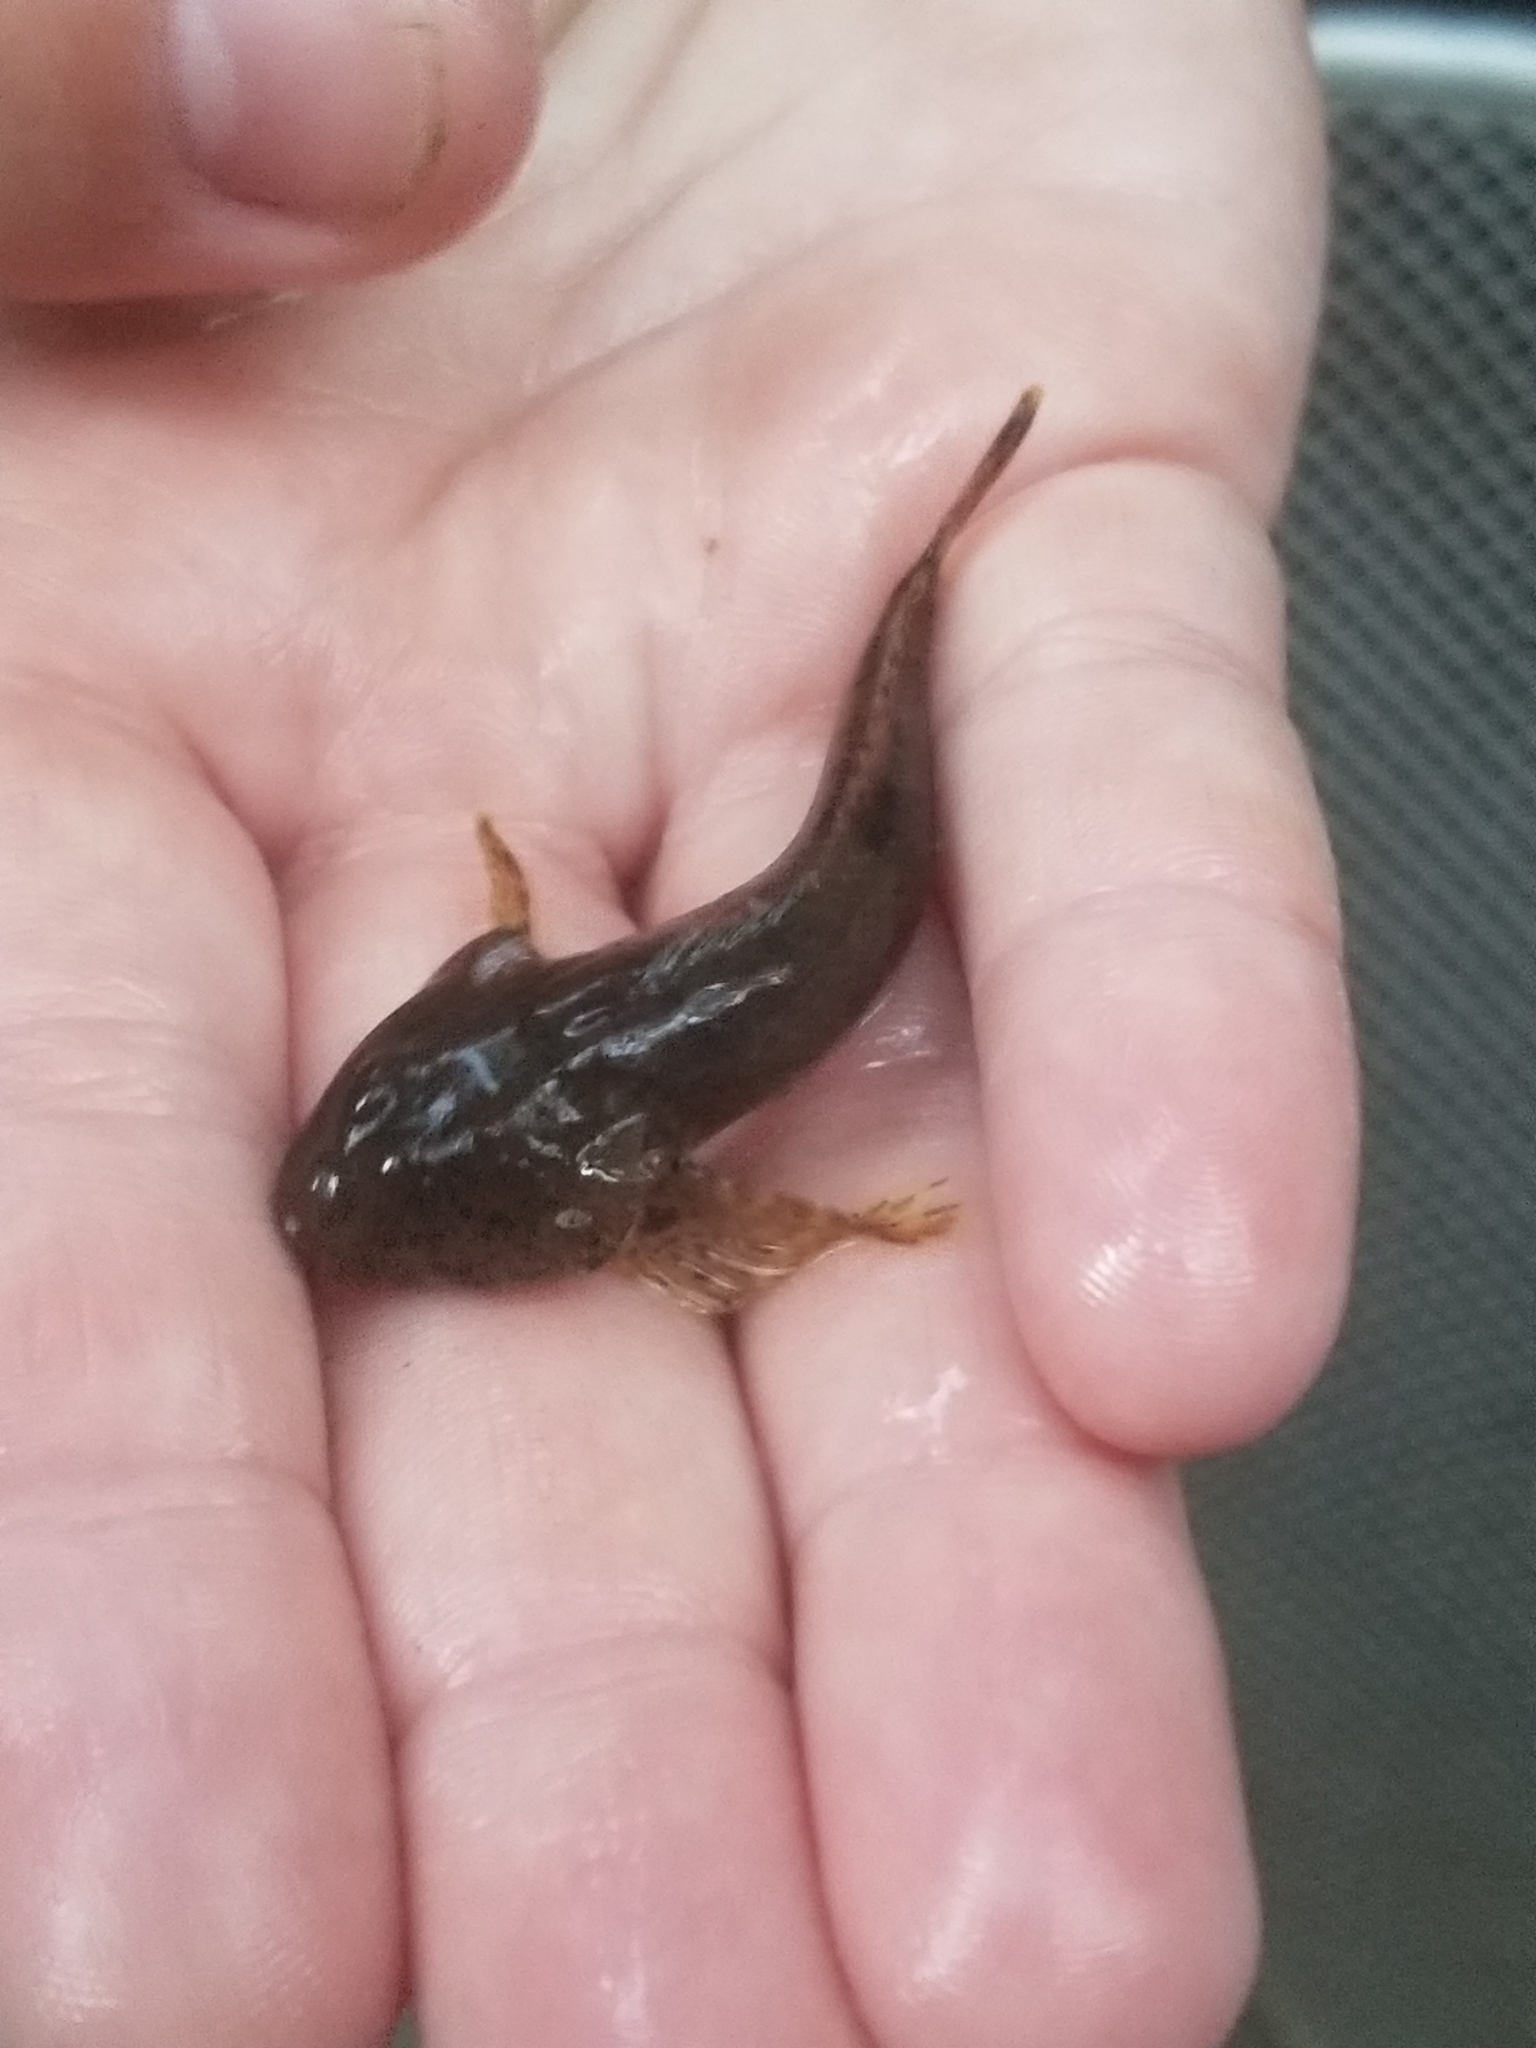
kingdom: Animalia
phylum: Chordata
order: Scorpaeniformes
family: Cottidae
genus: Cottus
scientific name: Cottus bairdii
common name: Mottled sculpin
